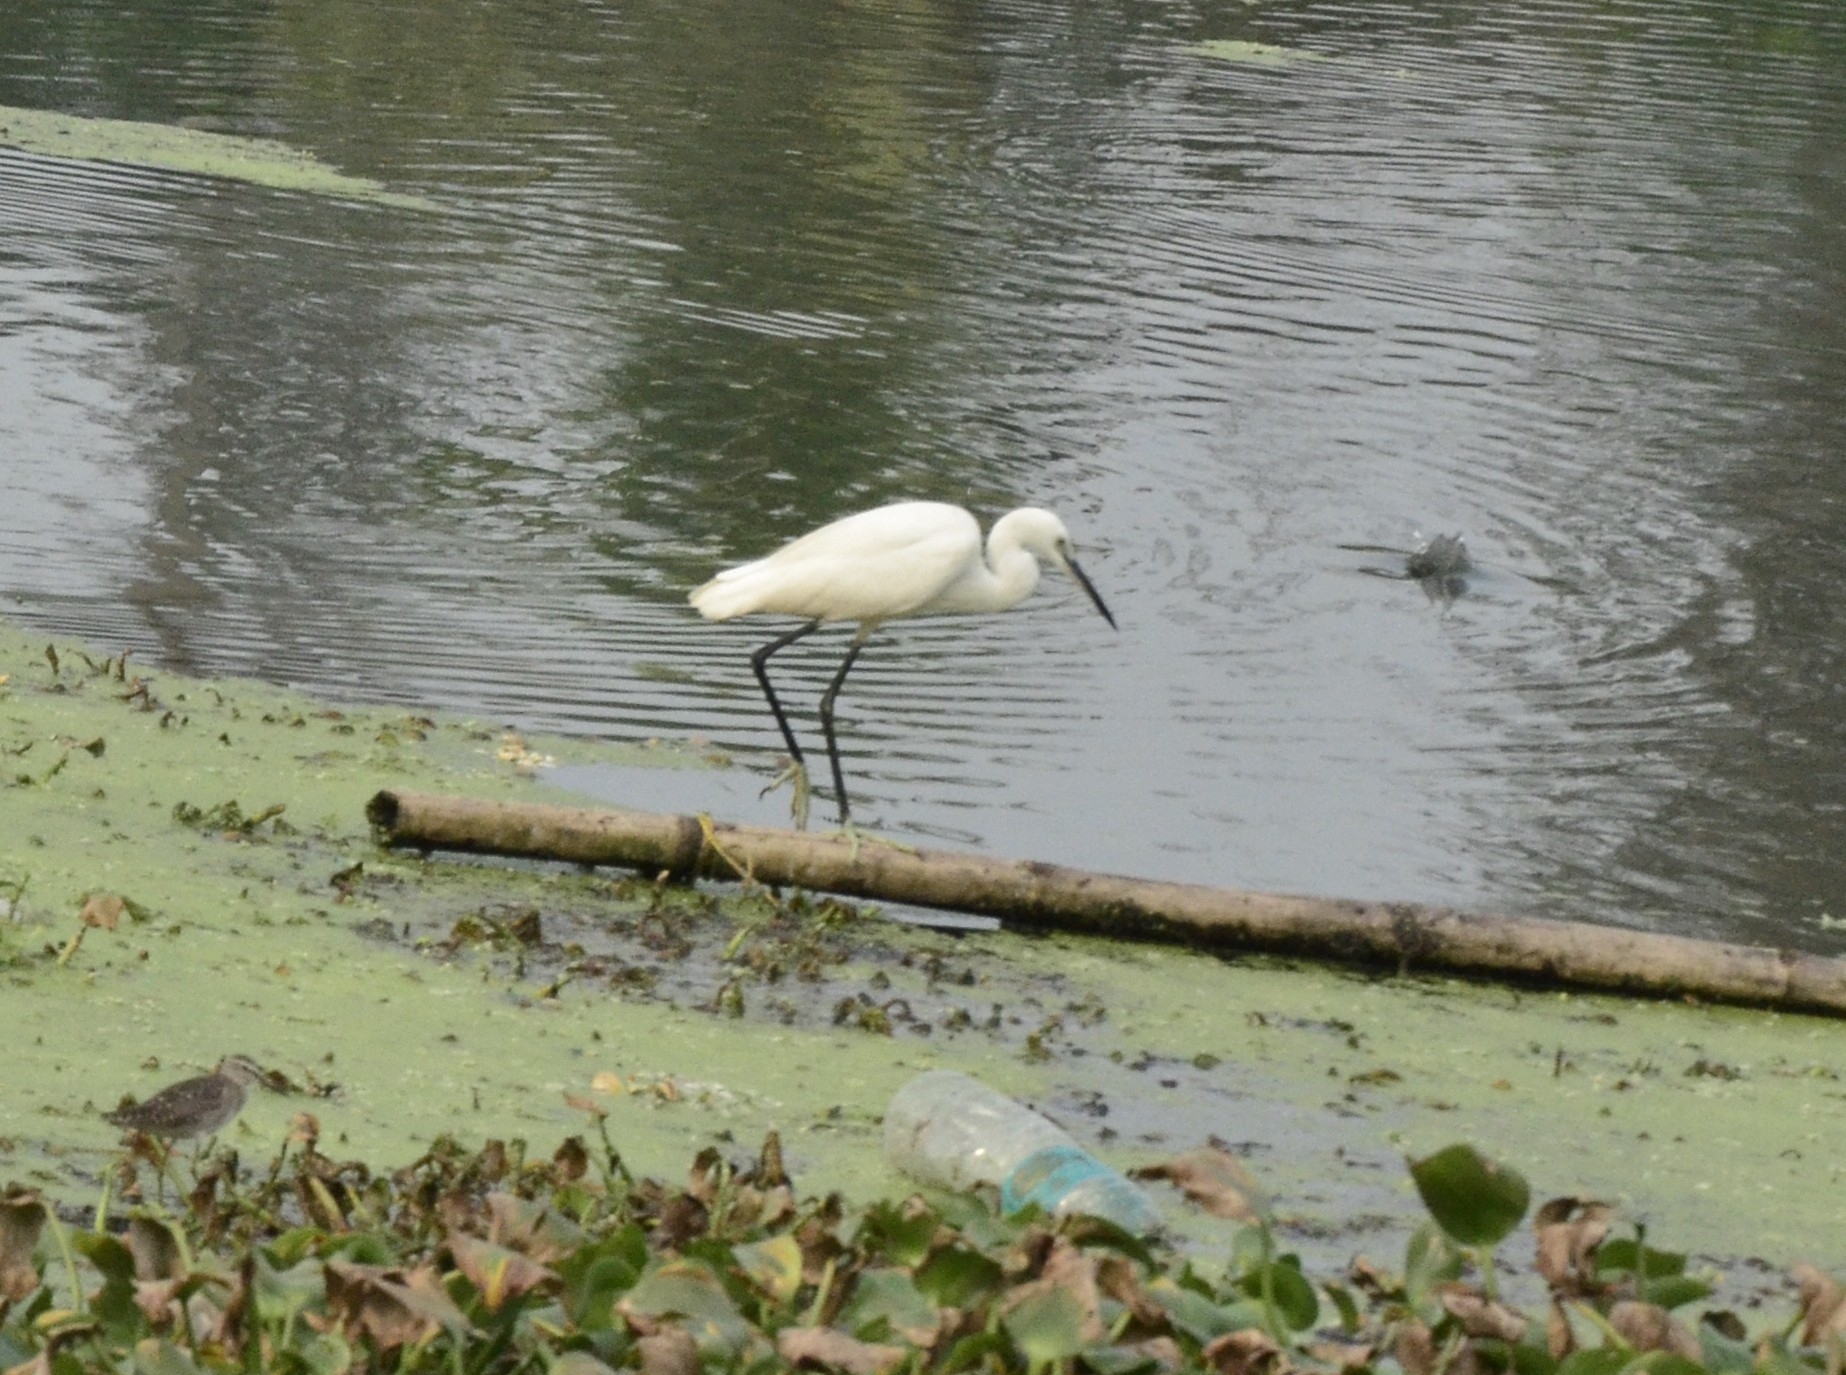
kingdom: Animalia
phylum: Chordata
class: Aves
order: Pelecaniformes
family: Ardeidae
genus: Egretta
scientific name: Egretta garzetta
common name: Little egret
